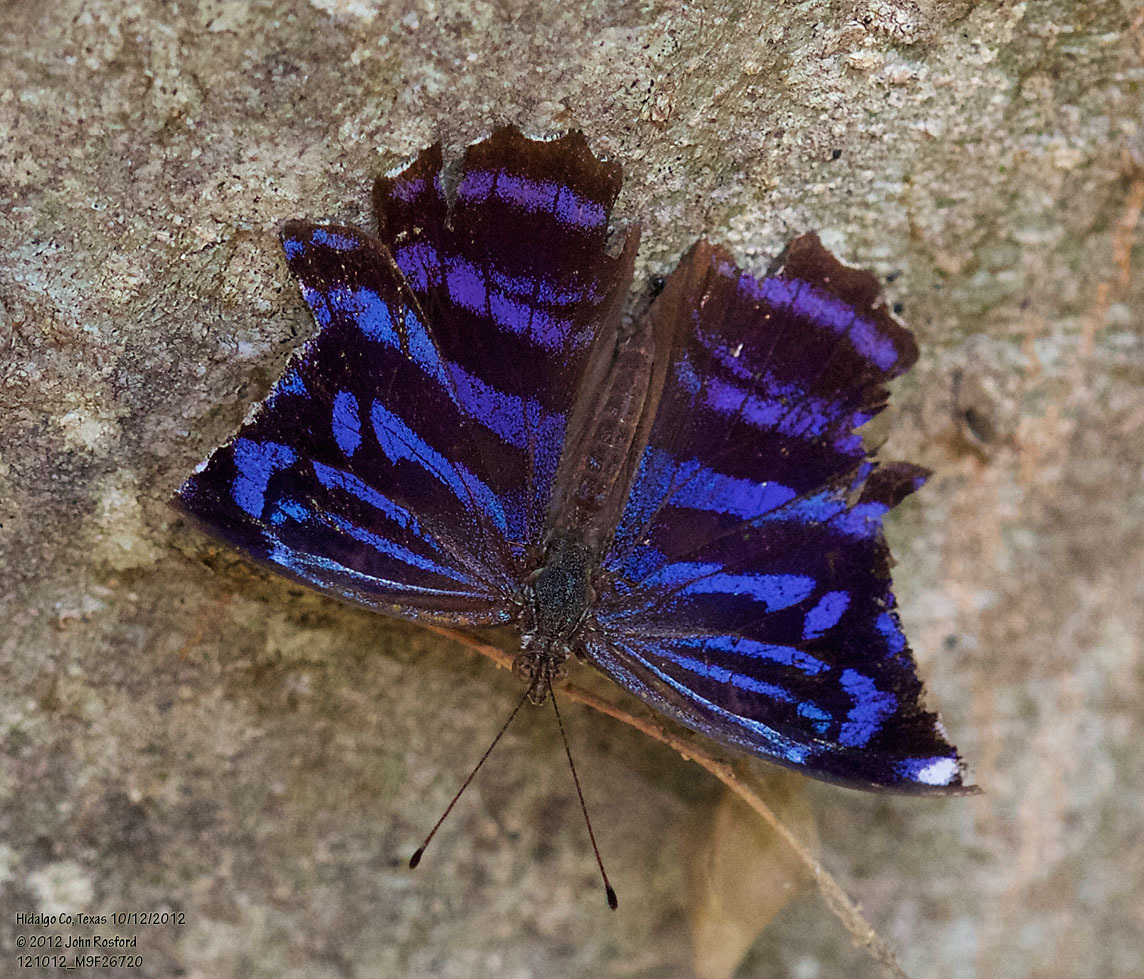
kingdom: Animalia
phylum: Arthropoda
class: Insecta
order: Lepidoptera
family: Nymphalidae
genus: Myscelia
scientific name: Myscelia ethusa
